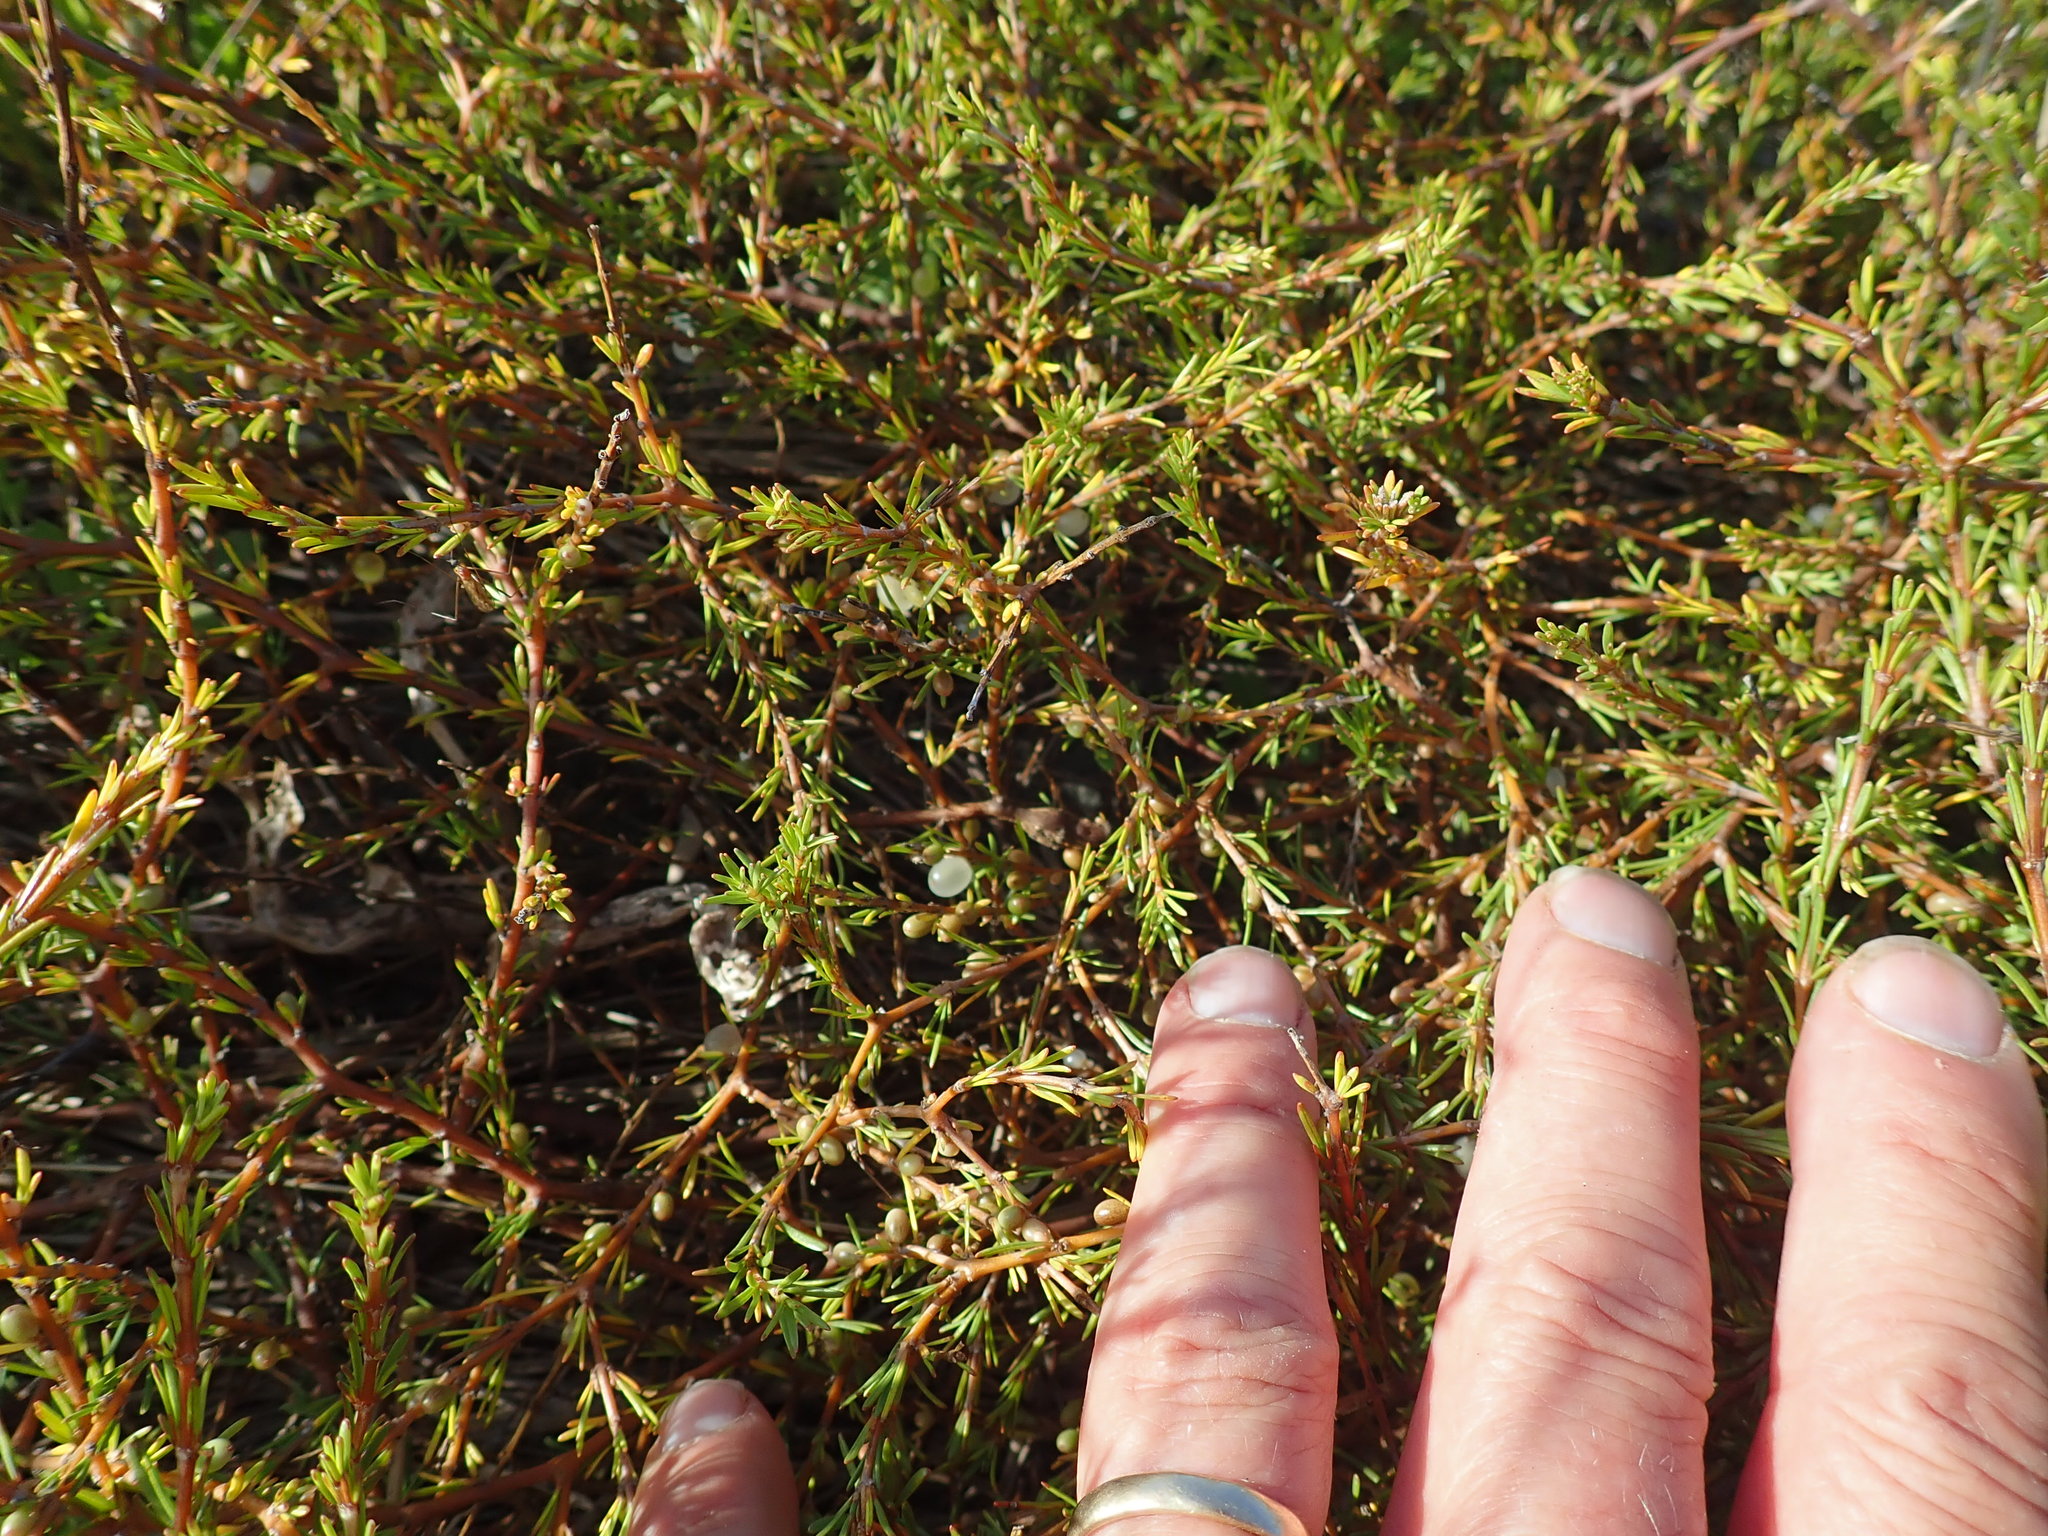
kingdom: Plantae
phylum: Tracheophyta
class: Magnoliopsida
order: Gentianales
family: Rubiaceae
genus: Coprosma
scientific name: Coprosma acerosa
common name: Sand coprosma
